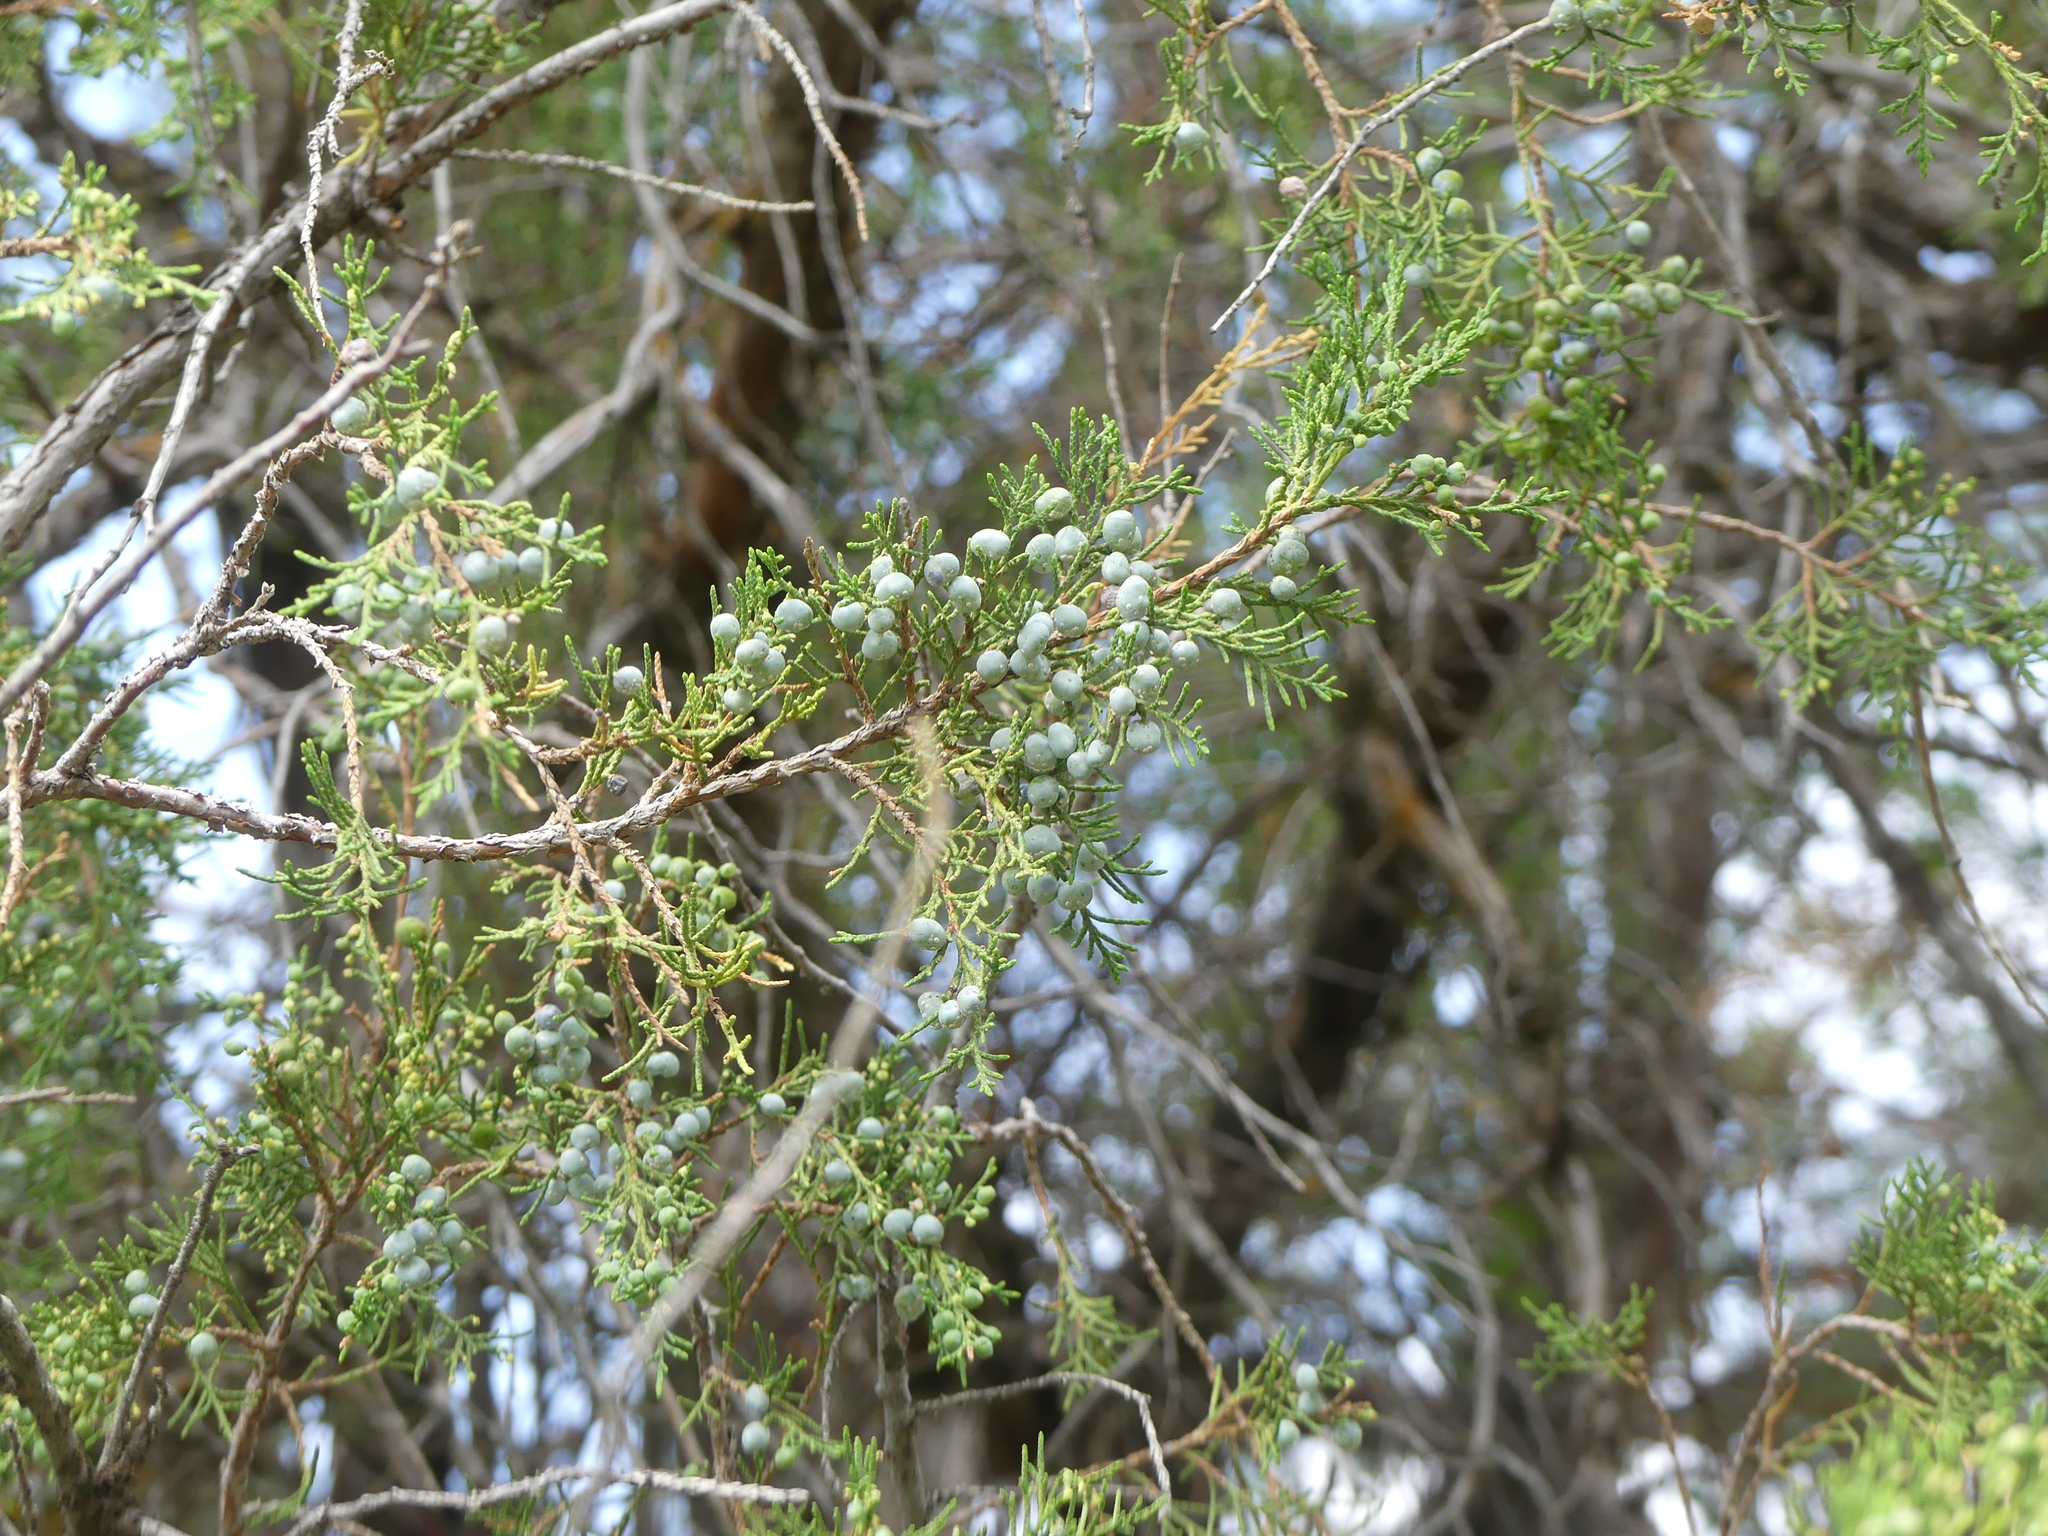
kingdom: Plantae
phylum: Tracheophyta
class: Pinopsida
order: Pinales
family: Cupressaceae
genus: Juniperus
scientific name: Juniperus scopulorum
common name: Rocky mountain juniper
